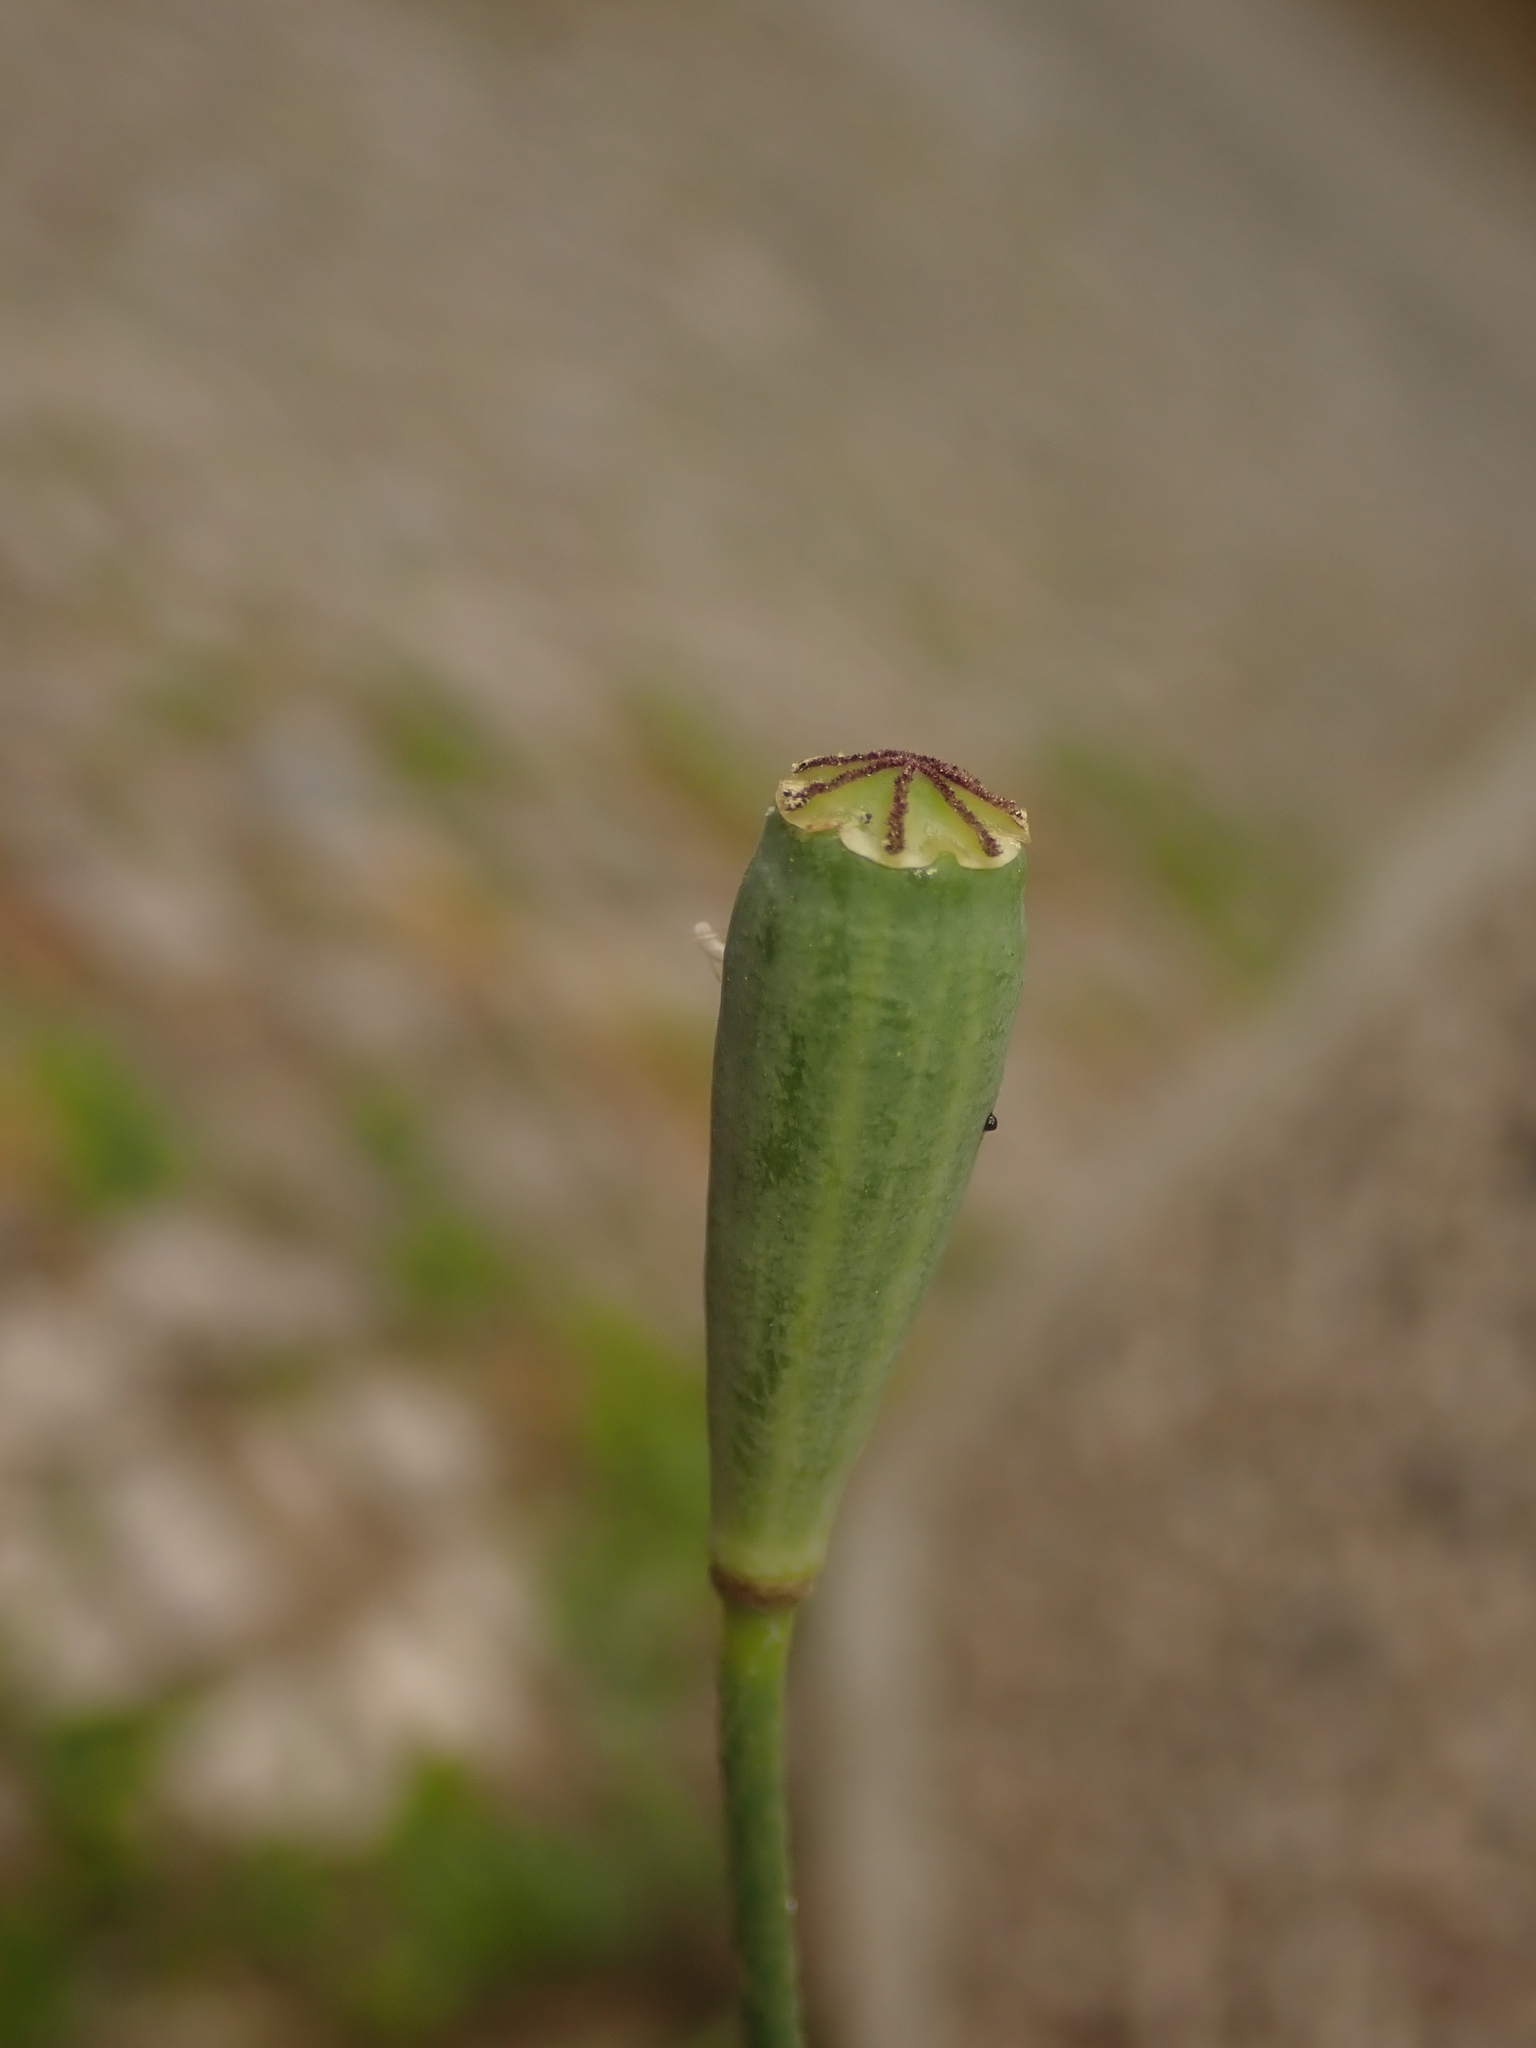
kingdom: Plantae
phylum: Tracheophyta
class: Magnoliopsida
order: Ranunculales
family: Papaveraceae
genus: Papaver
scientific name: Papaver dubium
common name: Long-headed poppy
